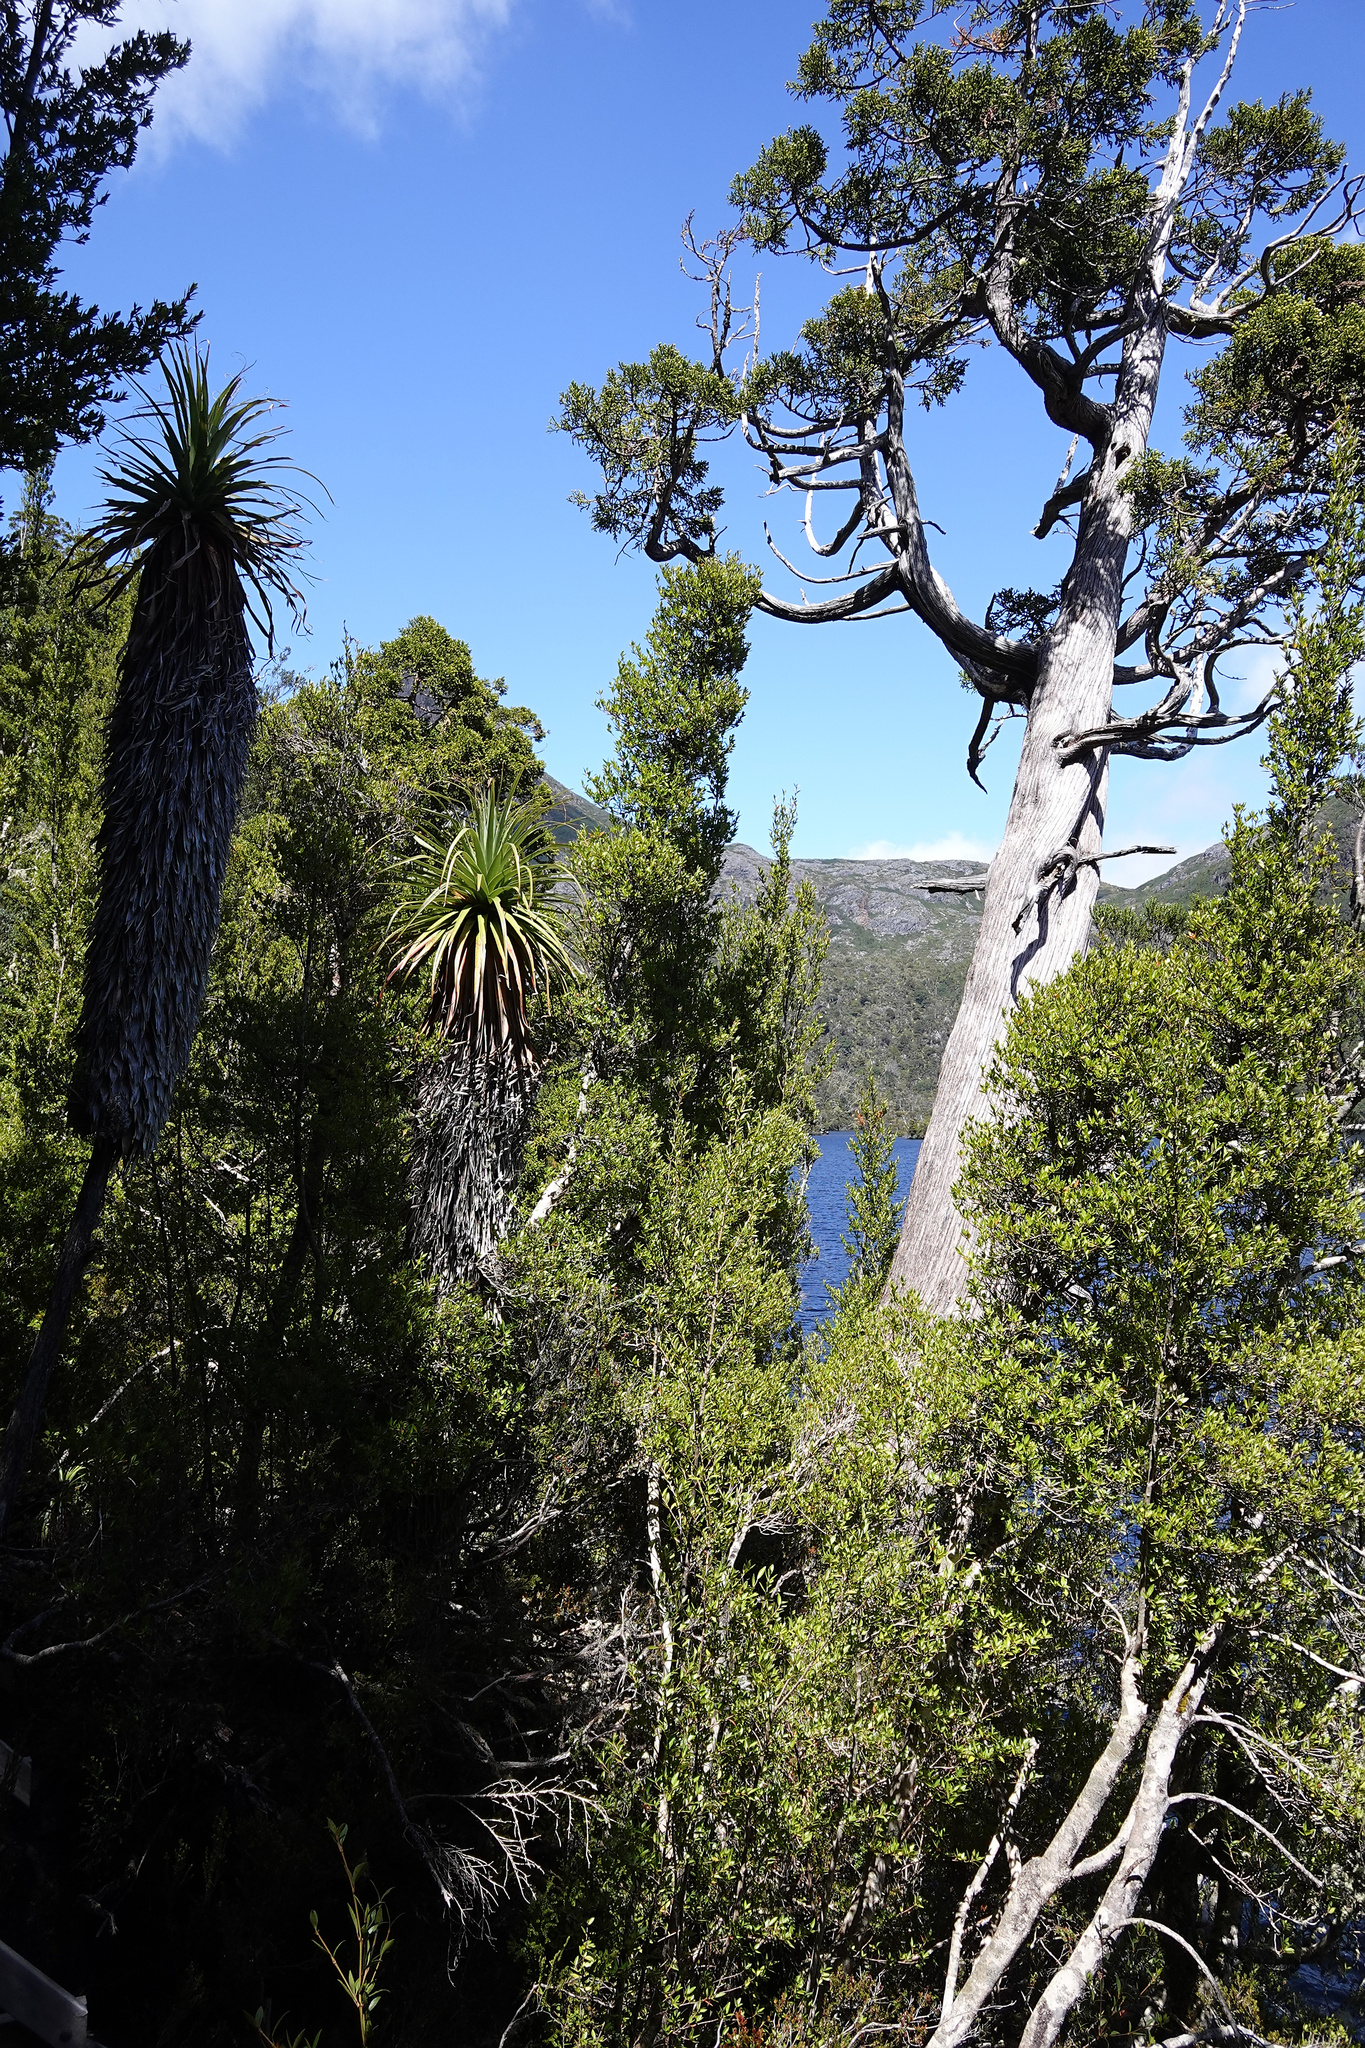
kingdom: Plantae
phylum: Tracheophyta
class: Magnoliopsida
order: Ericales
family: Ericaceae
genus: Dracophyllum
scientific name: Dracophyllum pandanifolium
